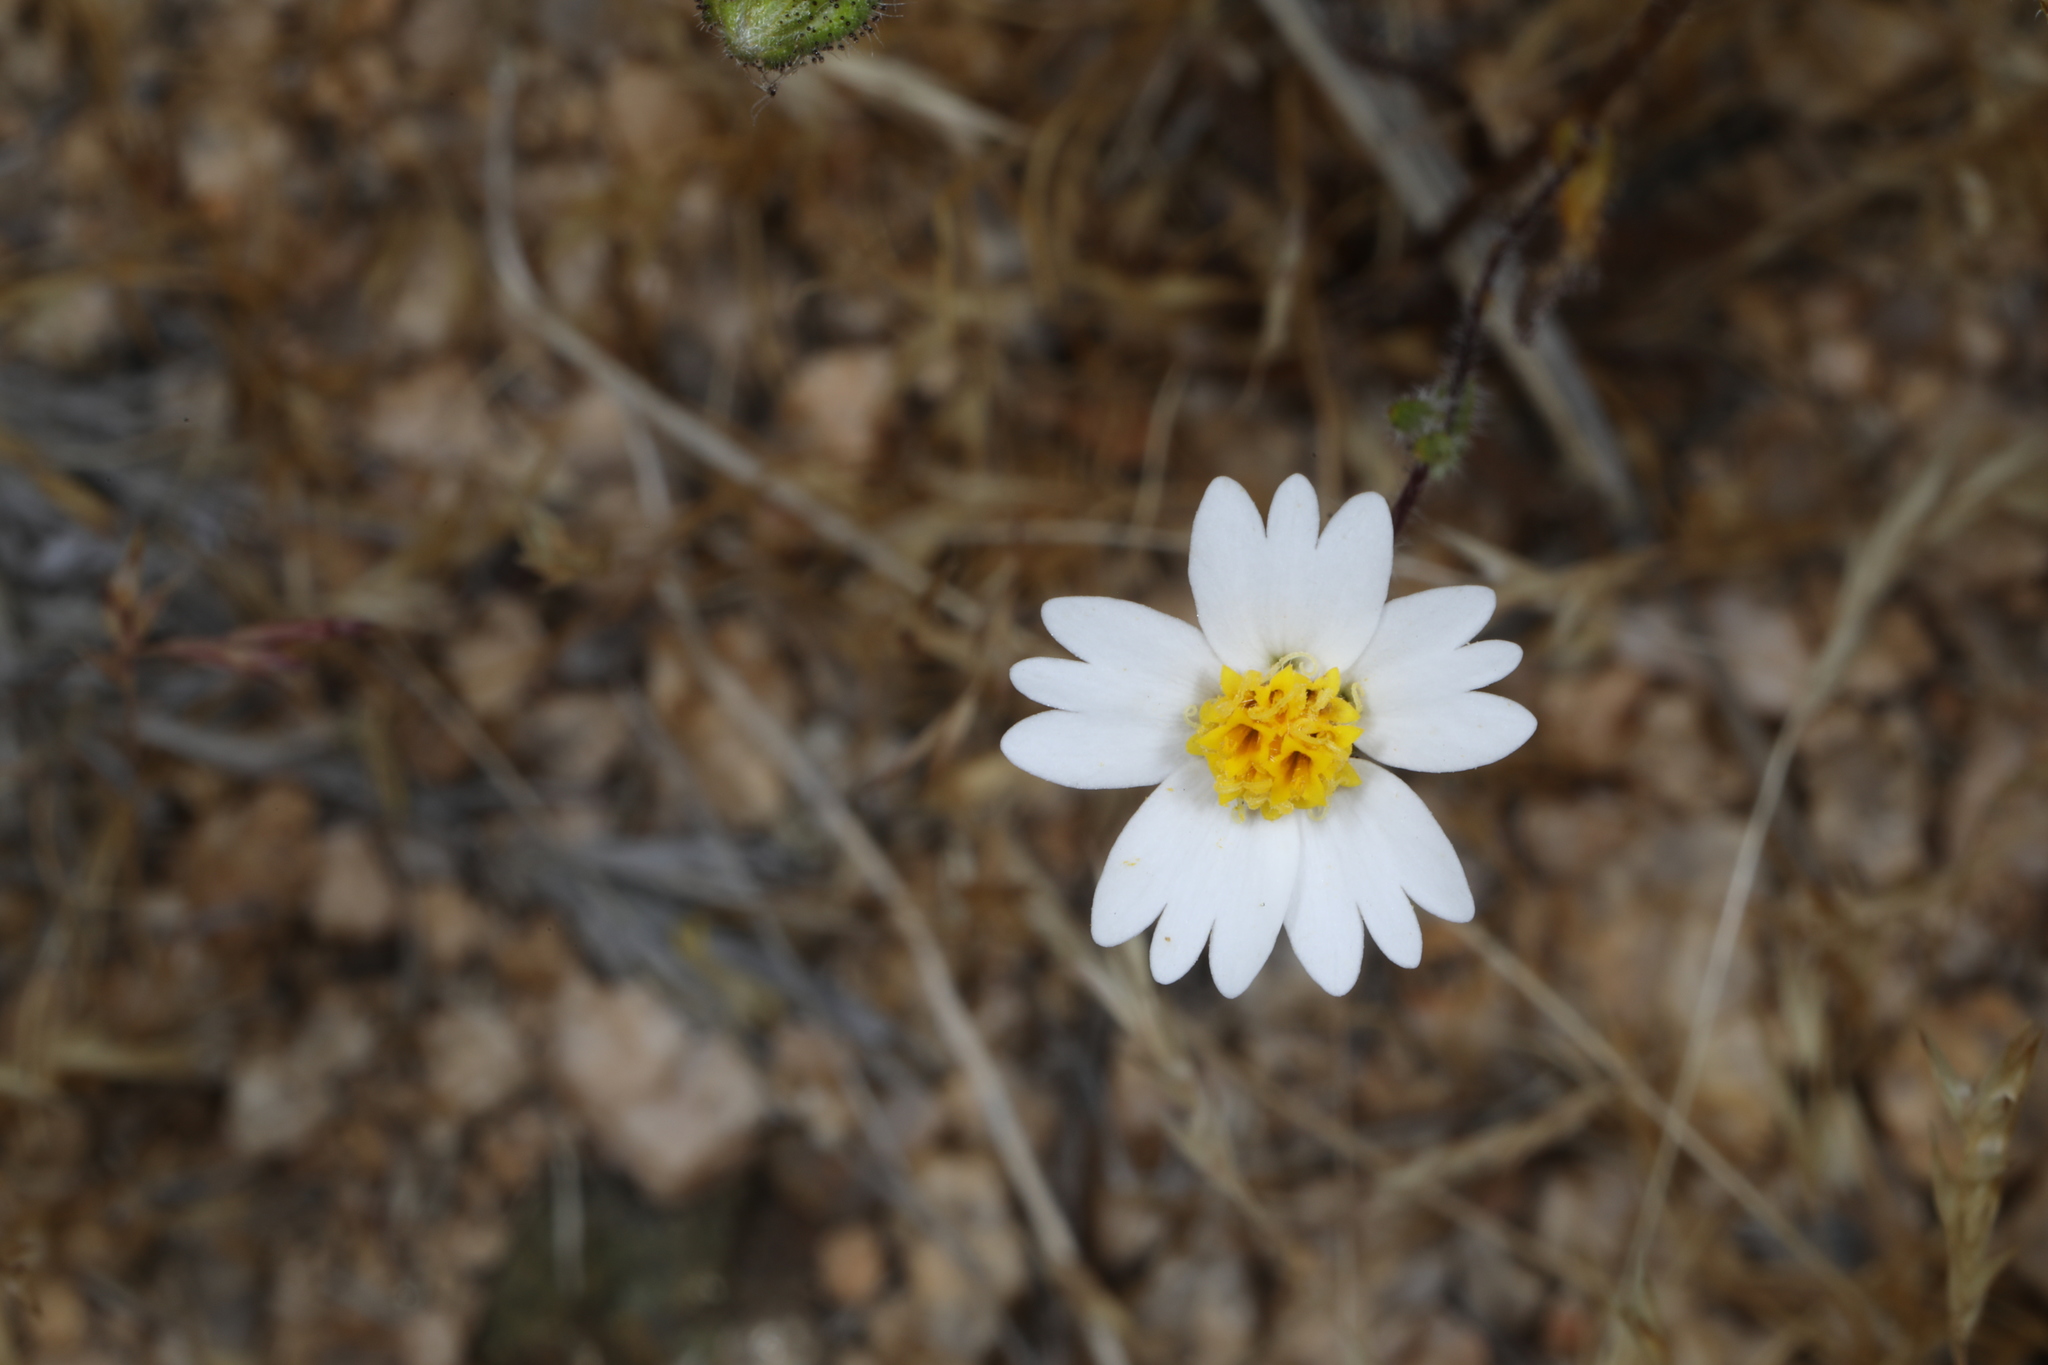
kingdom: Plantae
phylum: Tracheophyta
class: Magnoliopsida
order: Asterales
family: Asteraceae
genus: Layia
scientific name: Layia glandulosa
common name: White layia
